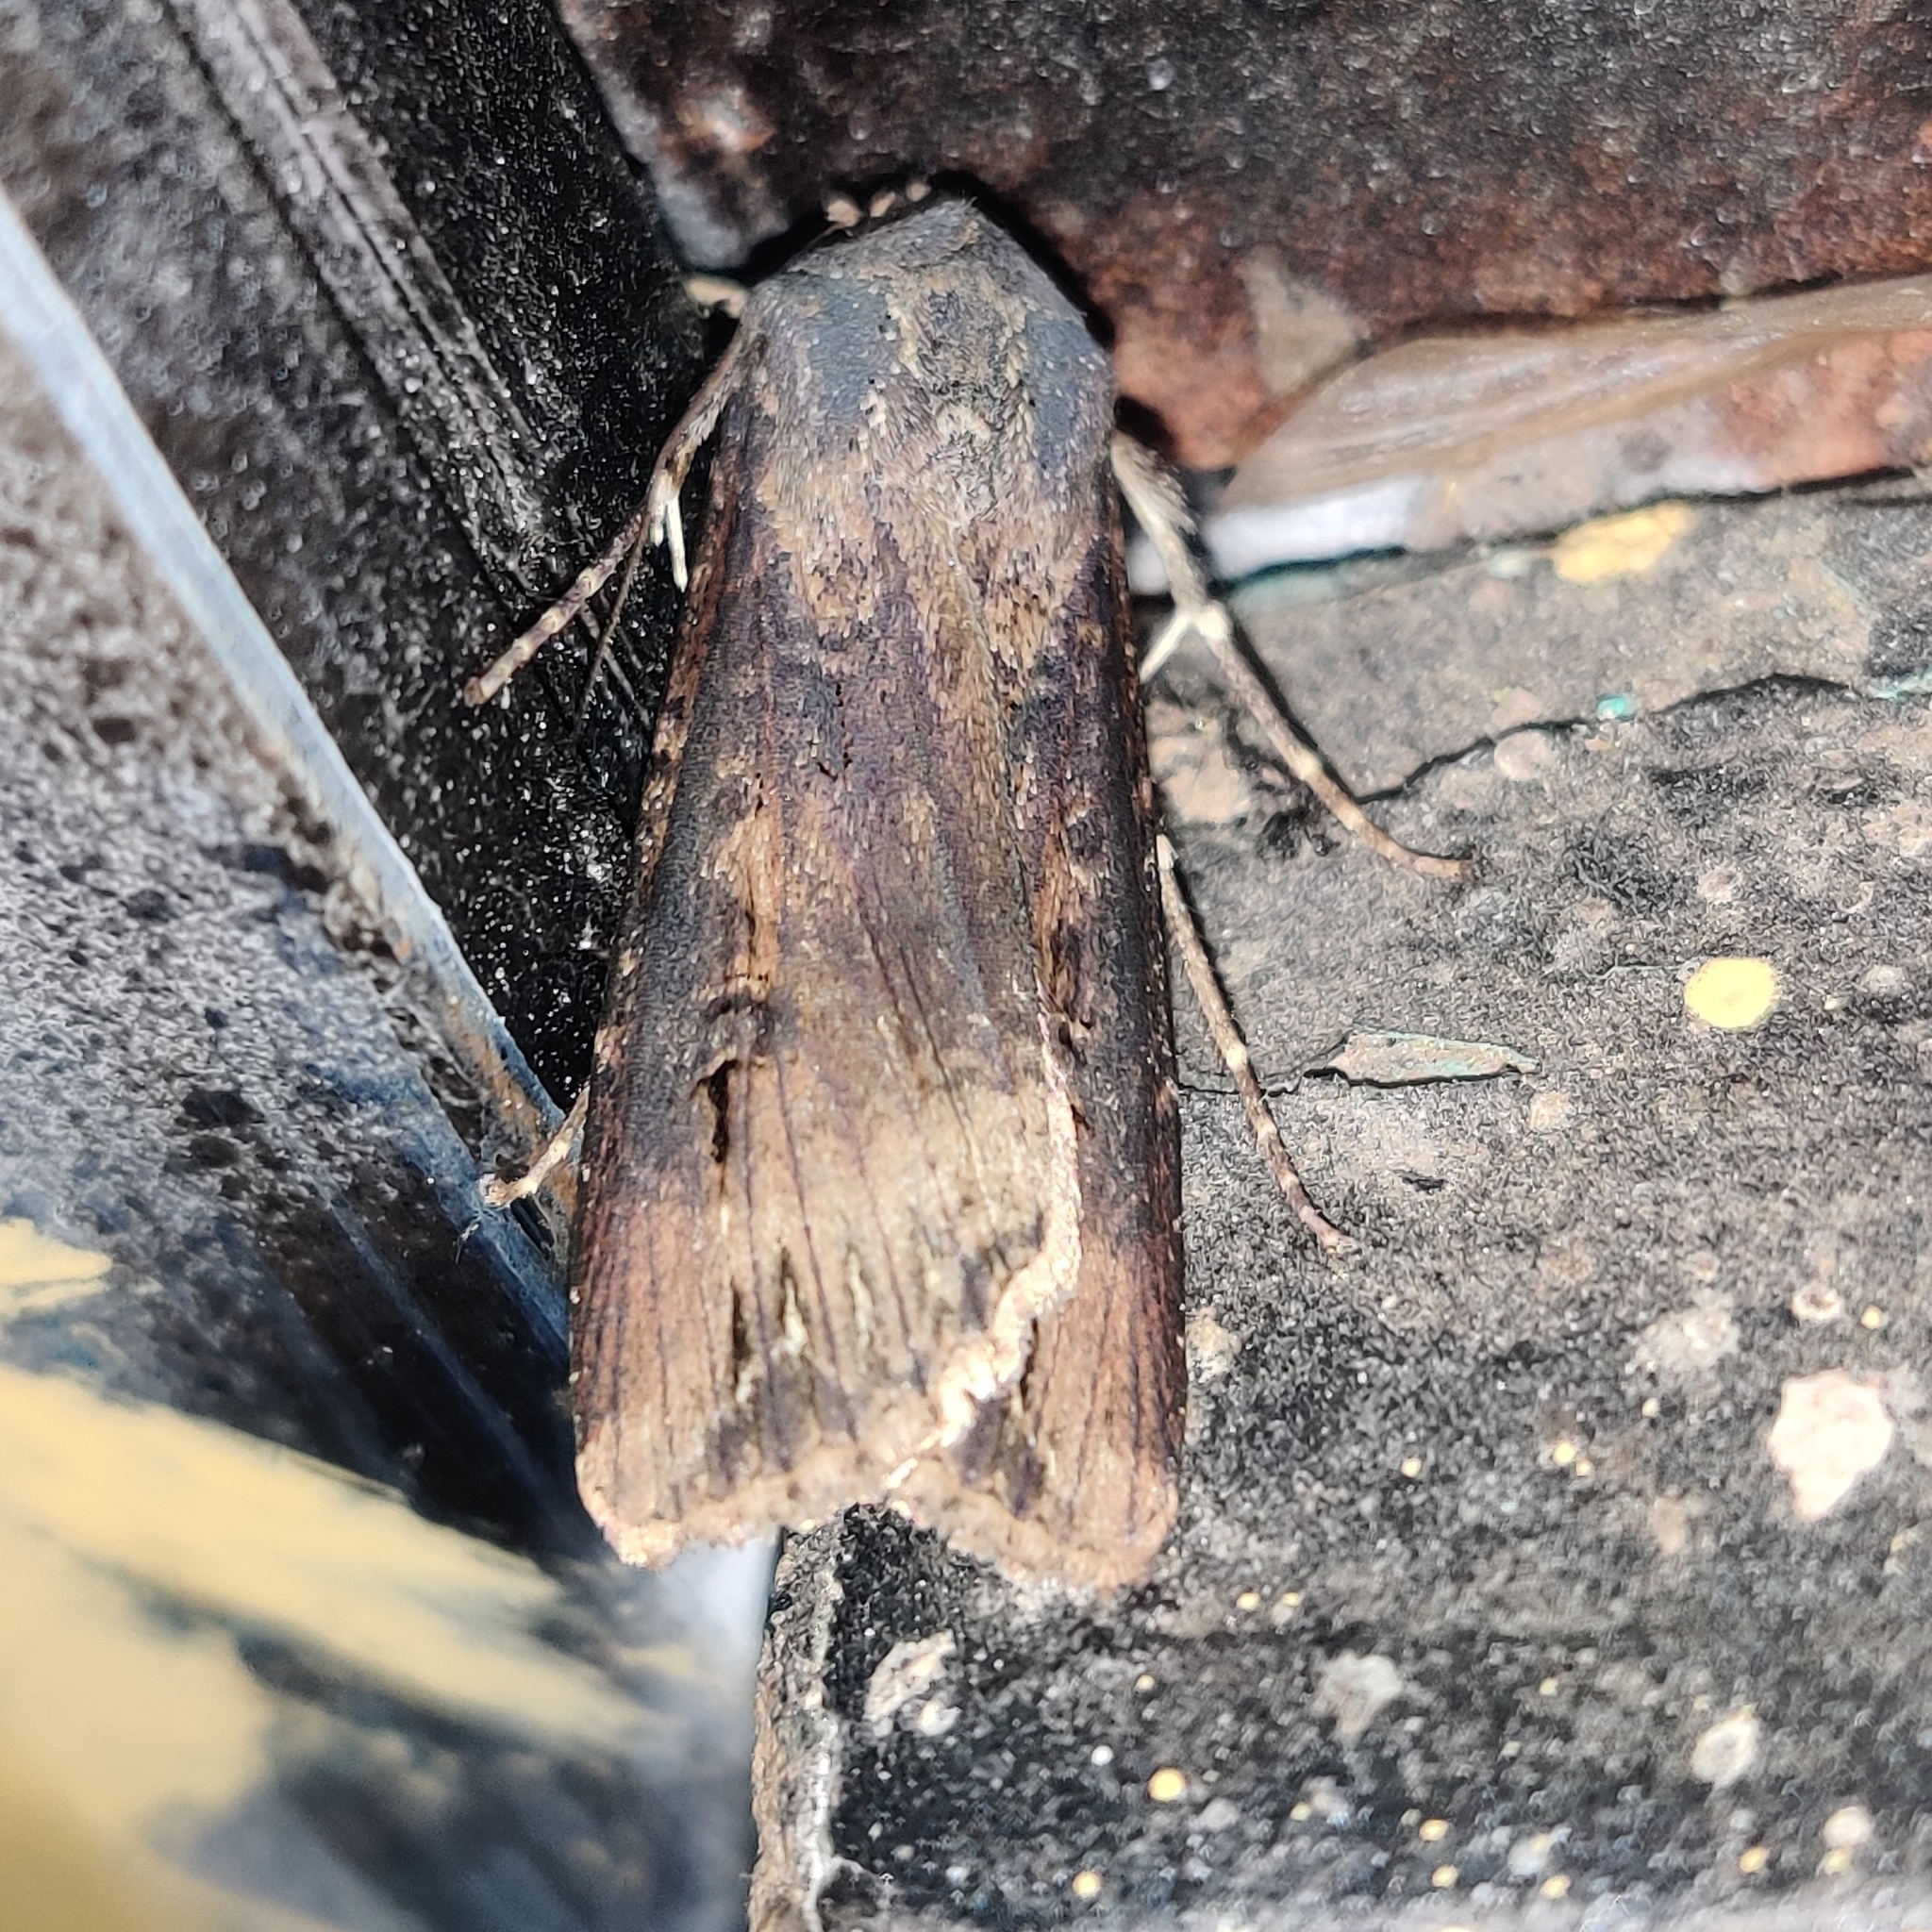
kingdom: Animalia
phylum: Arthropoda
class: Insecta
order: Lepidoptera
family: Noctuidae
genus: Agrotis
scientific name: Agrotis ipsilon
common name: Dark sword-grass
